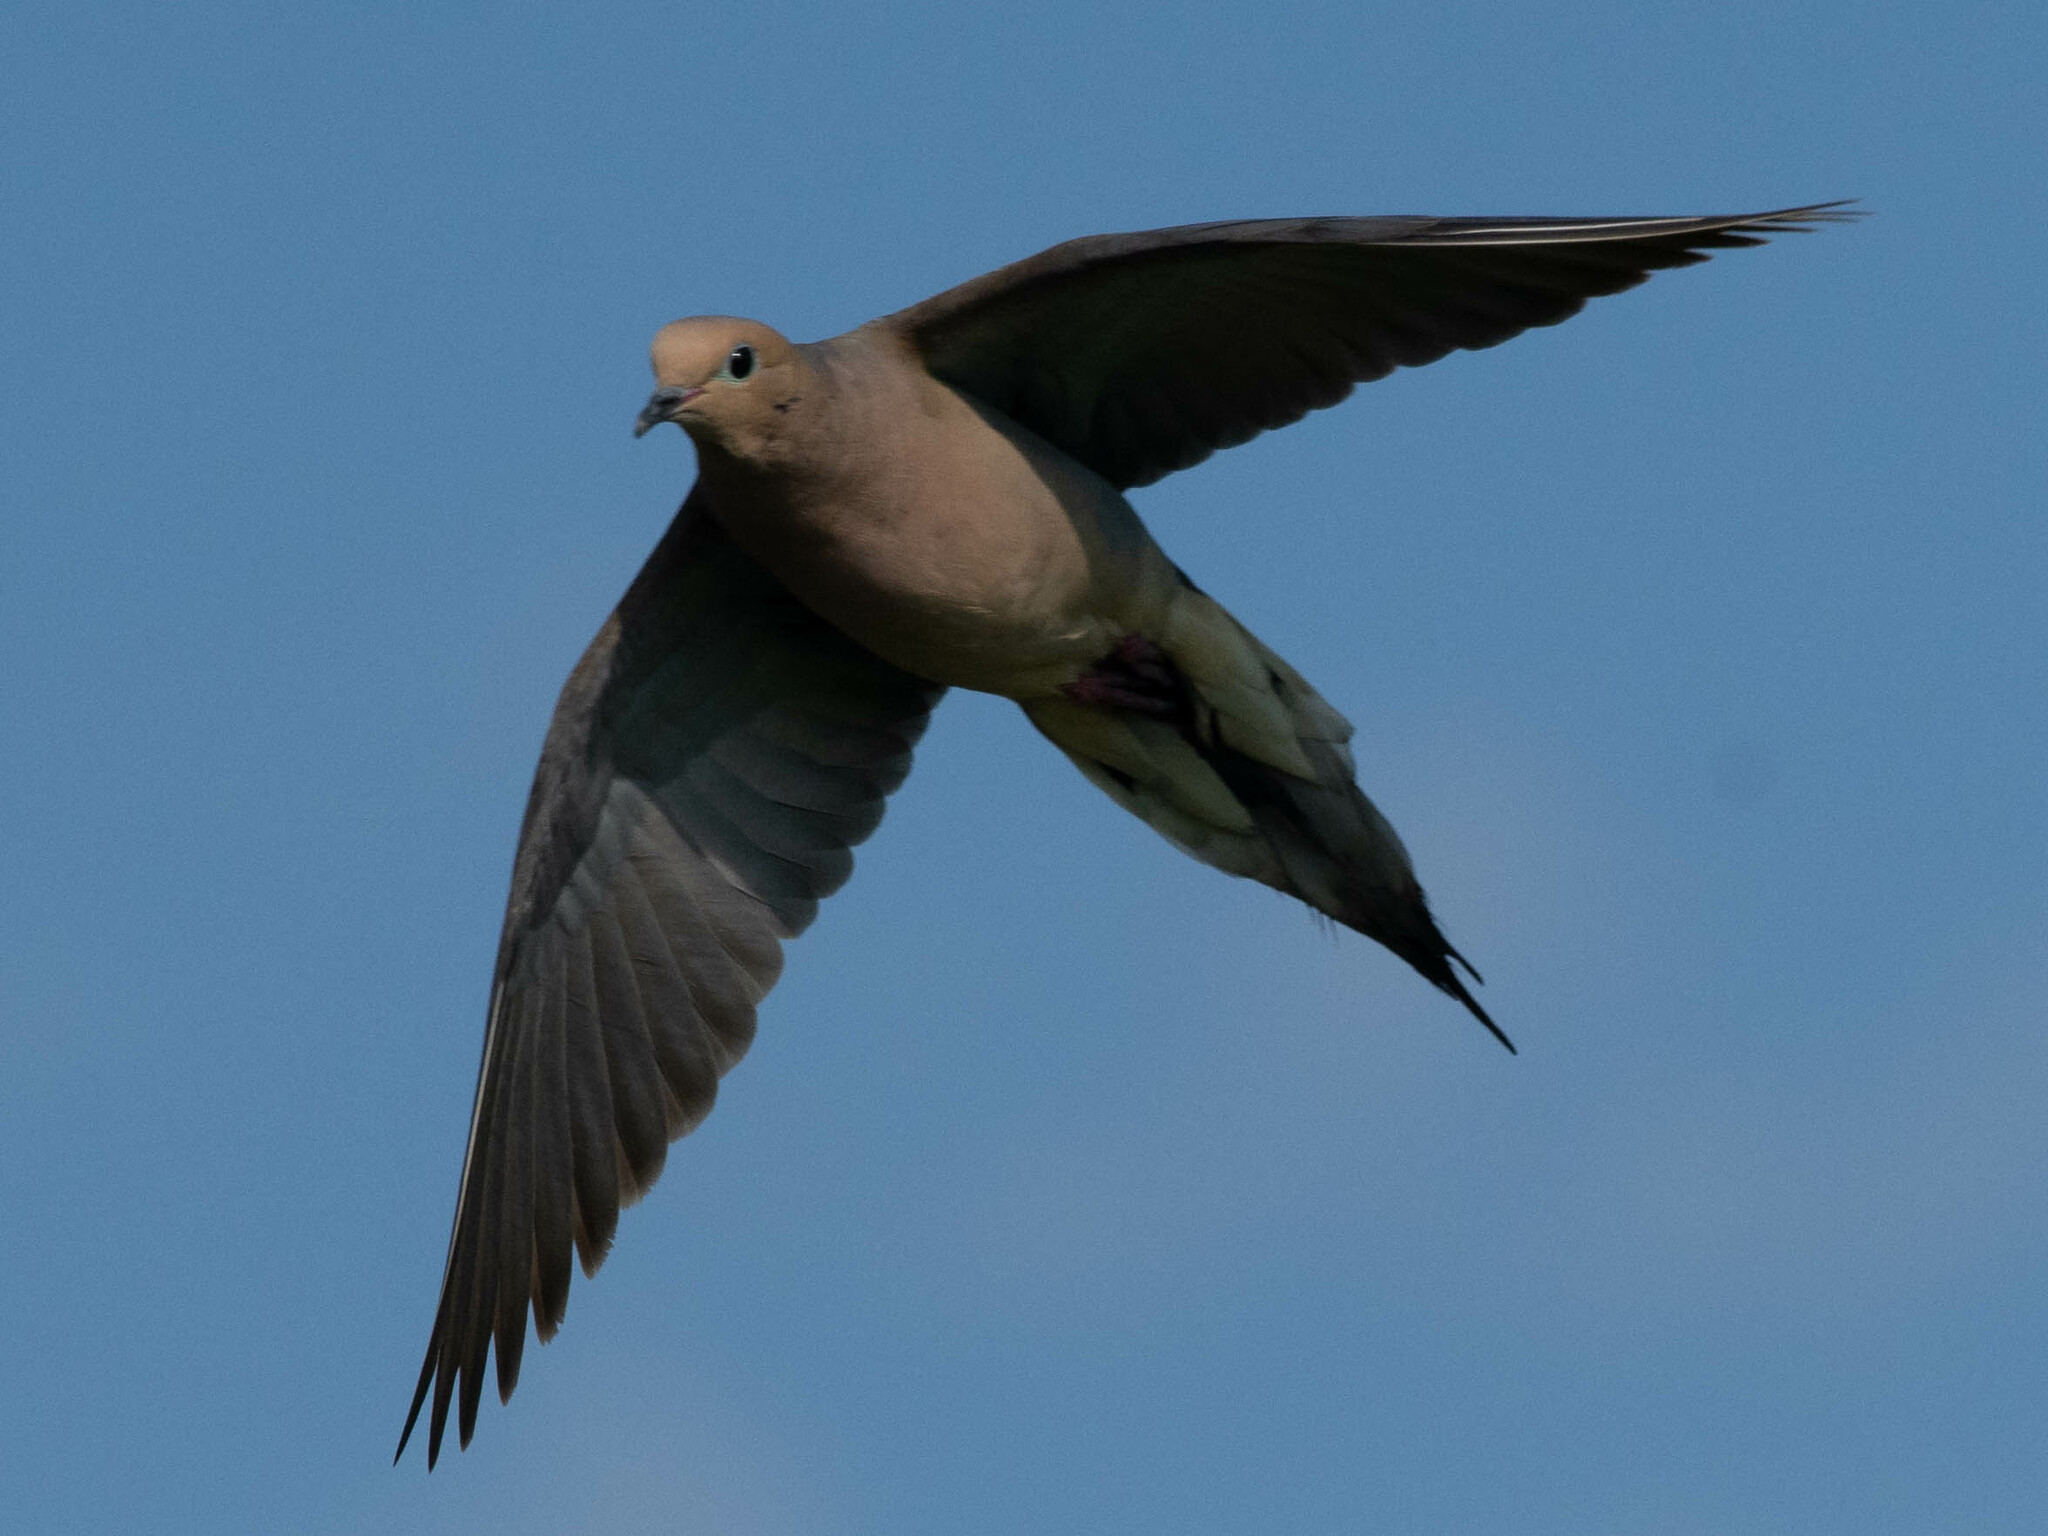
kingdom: Animalia
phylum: Chordata
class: Aves
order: Columbiformes
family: Columbidae
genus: Zenaida
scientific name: Zenaida macroura
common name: Mourning dove
